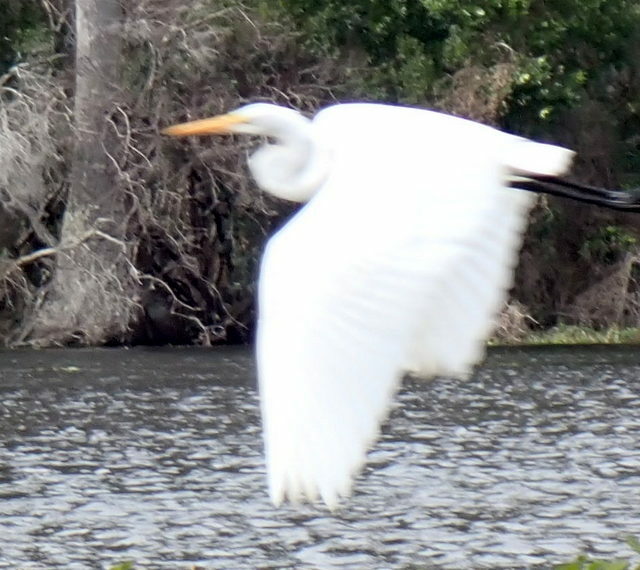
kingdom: Animalia
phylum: Chordata
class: Aves
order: Pelecaniformes
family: Ardeidae
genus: Ardea
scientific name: Ardea alba
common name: Great egret
